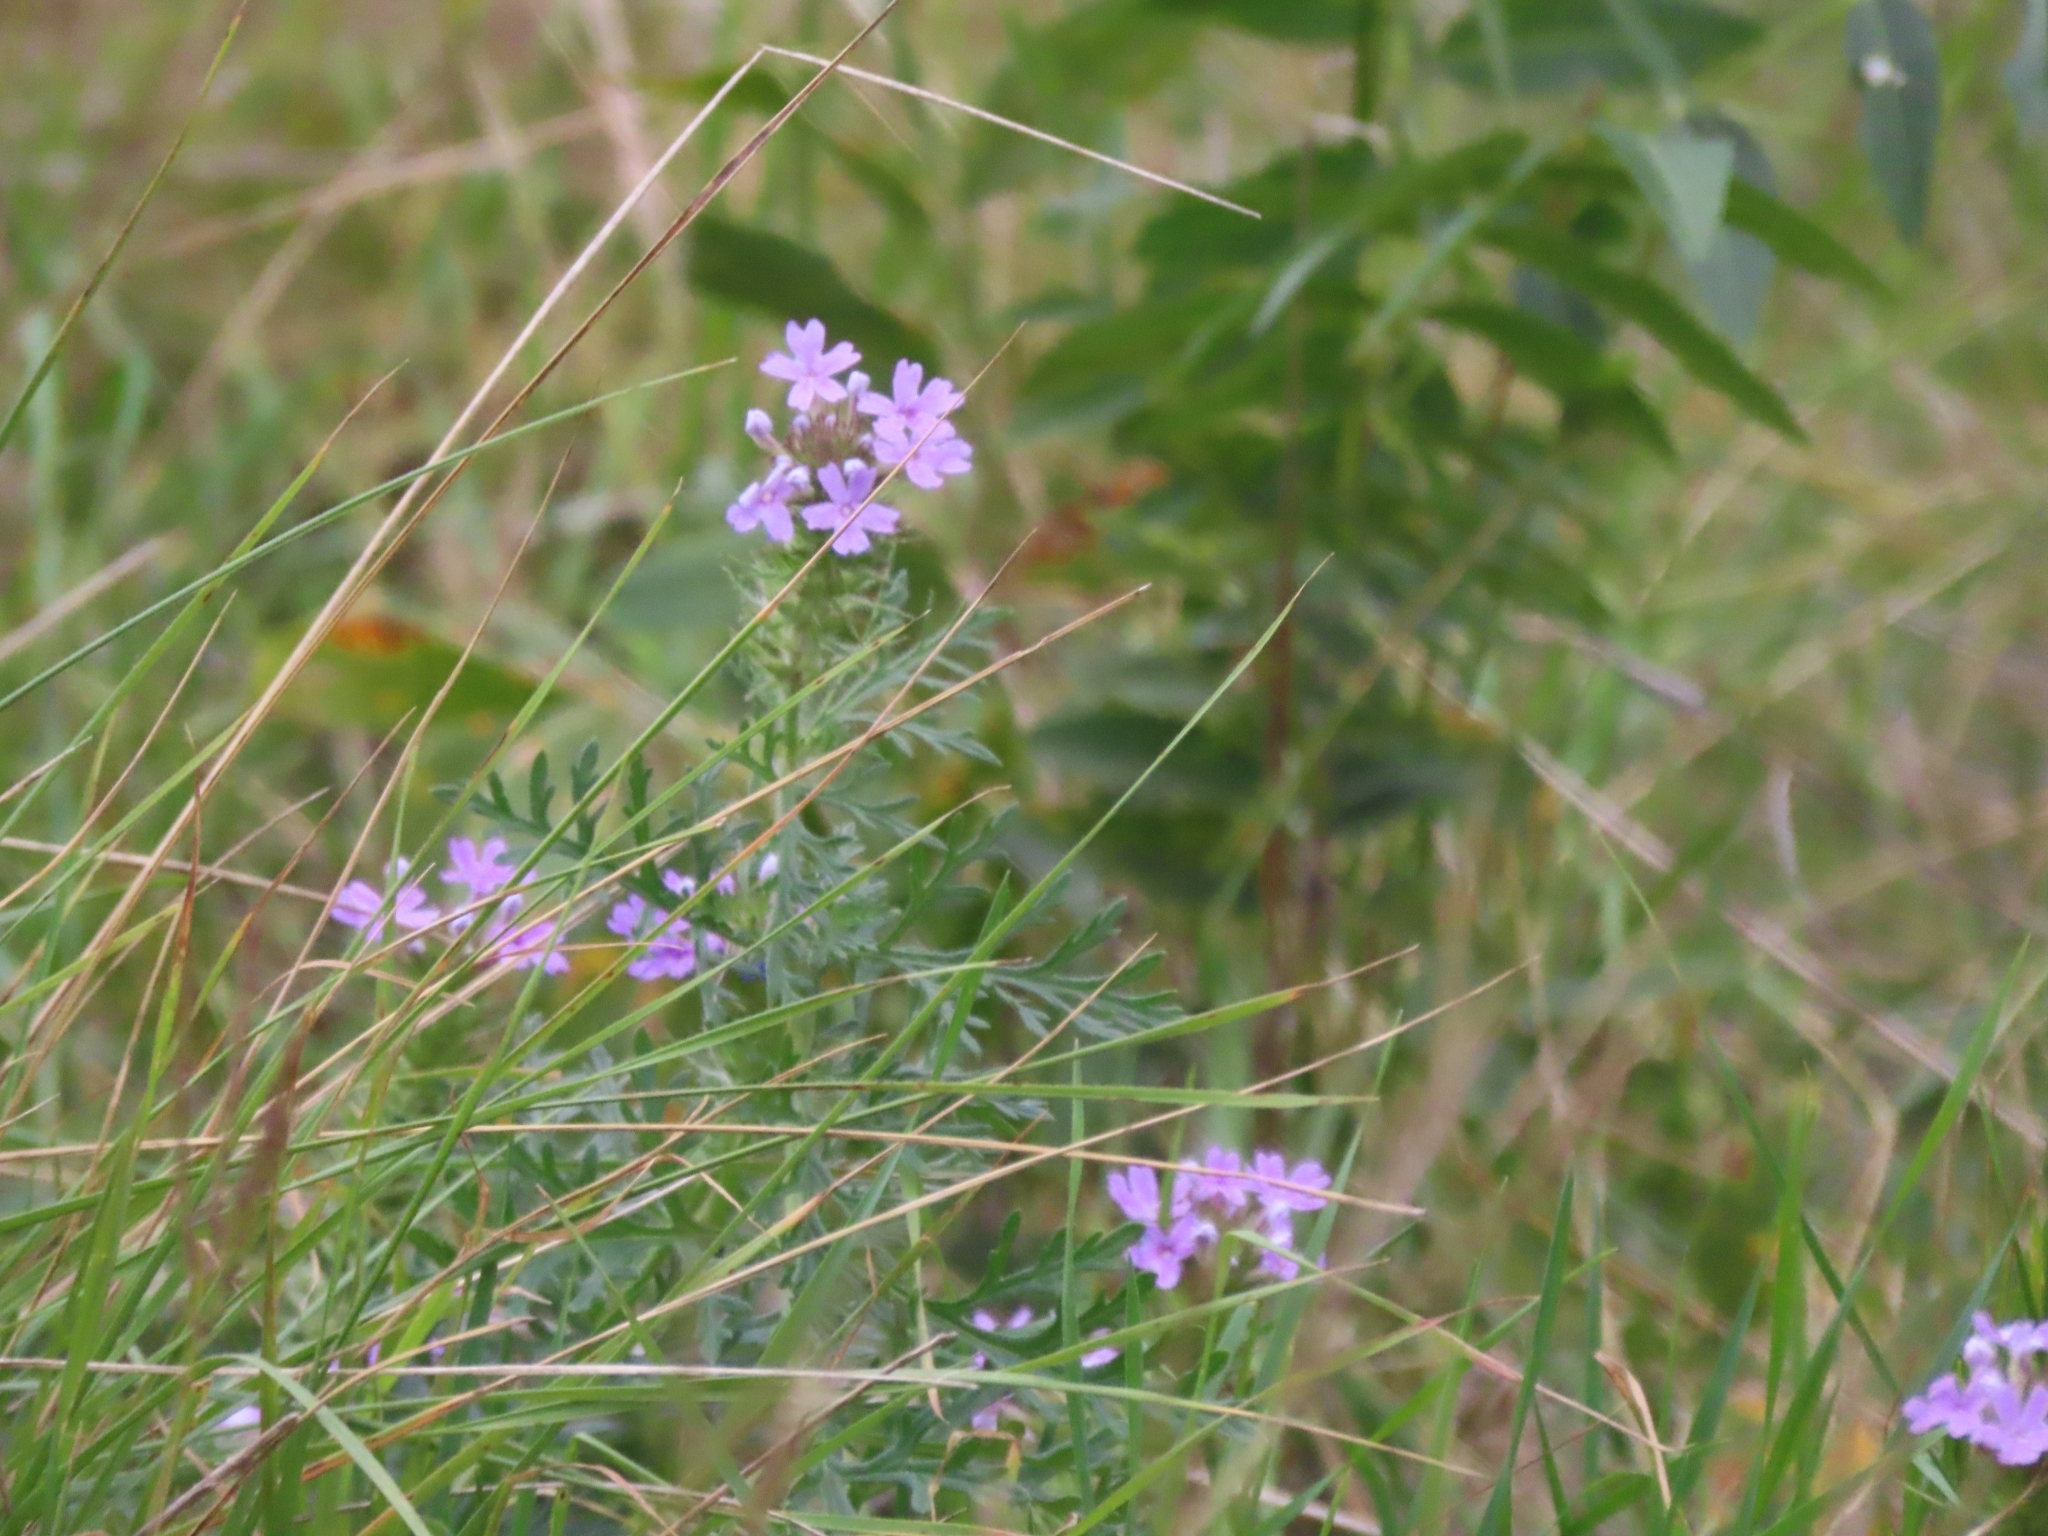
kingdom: Plantae
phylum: Tracheophyta
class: Magnoliopsida
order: Lamiales
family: Verbenaceae
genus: Verbena
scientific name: Verbena bipinnatifida
